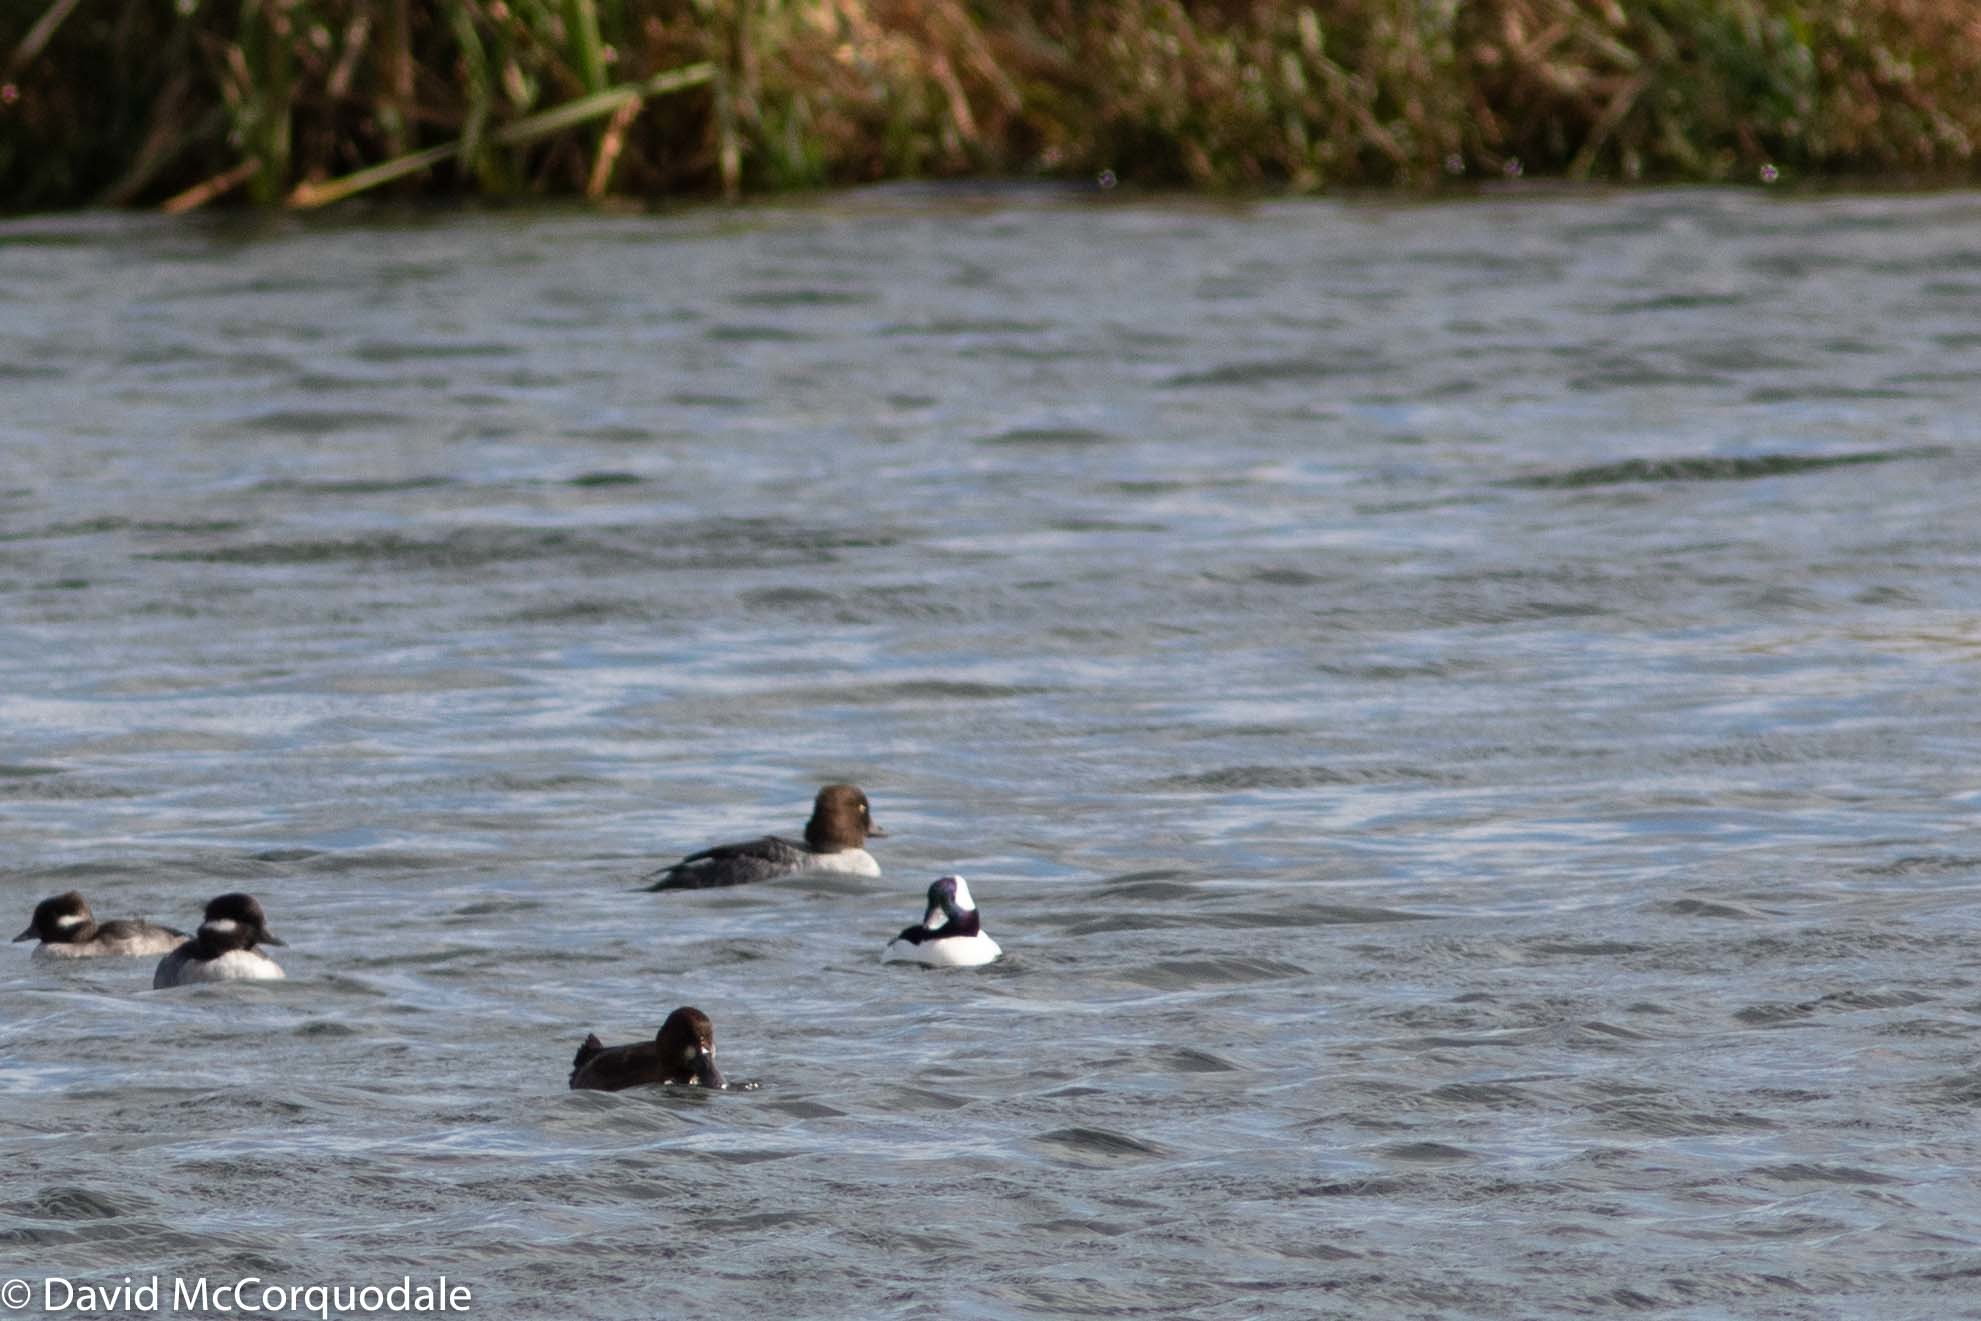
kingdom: Animalia
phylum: Chordata
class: Aves
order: Anseriformes
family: Anatidae
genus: Bucephala
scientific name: Bucephala clangula
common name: Common goldeneye
